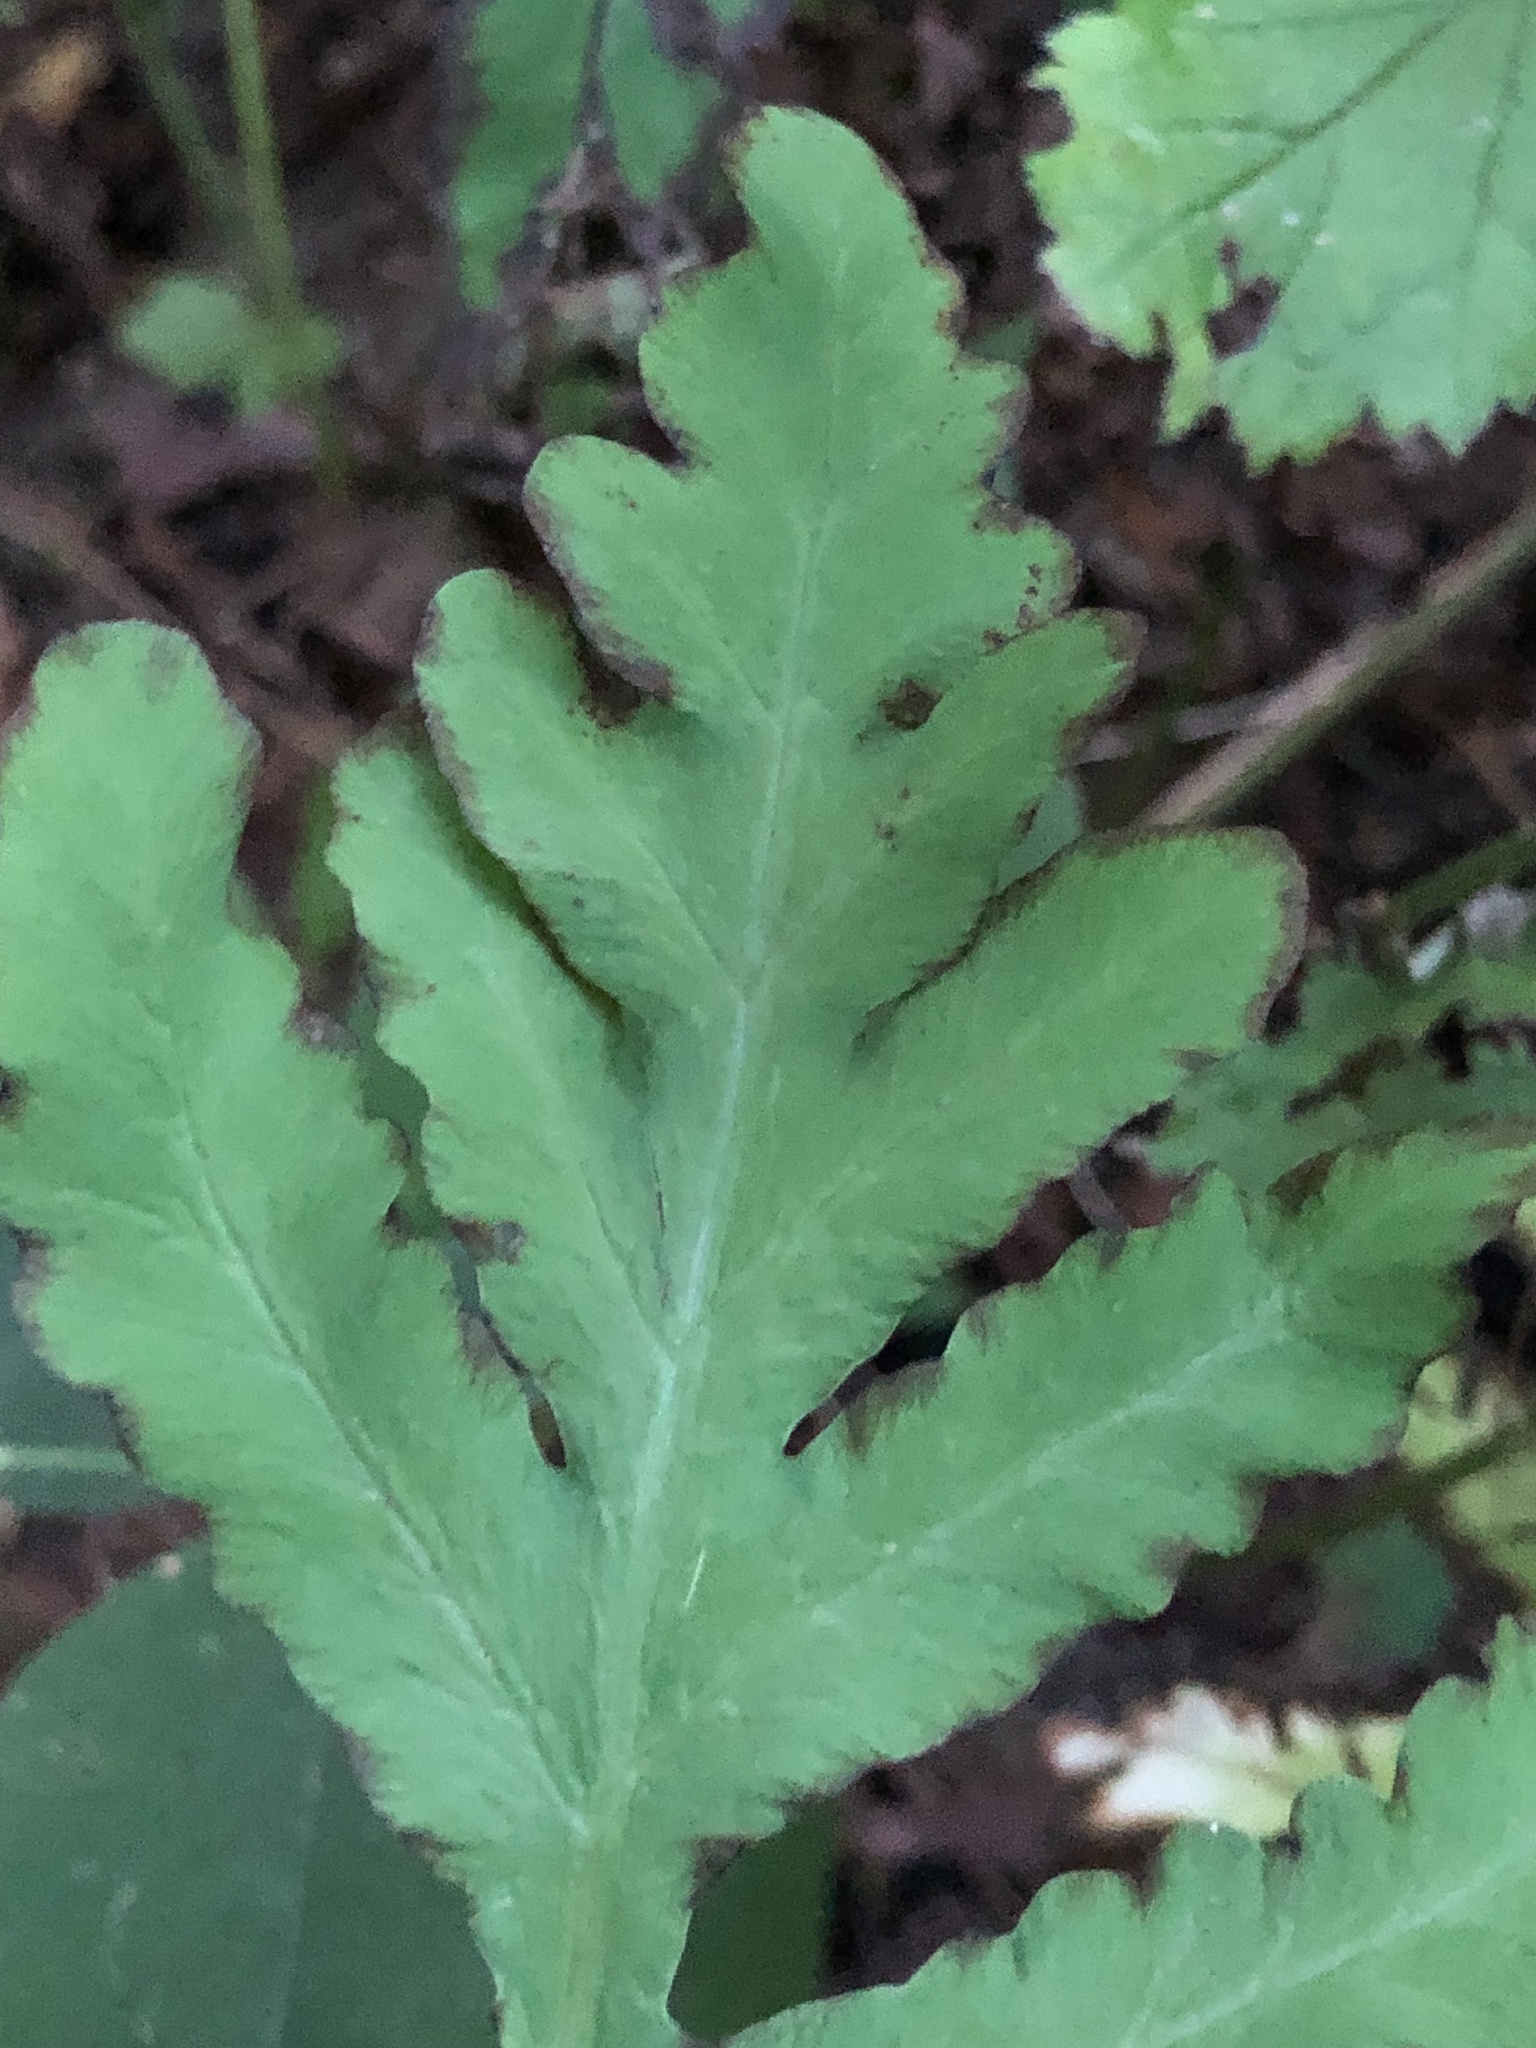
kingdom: Plantae
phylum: Tracheophyta
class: Polypodiopsida
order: Polypodiales
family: Onocleaceae
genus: Onoclea
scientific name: Onoclea sensibilis
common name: Sensitive fern
